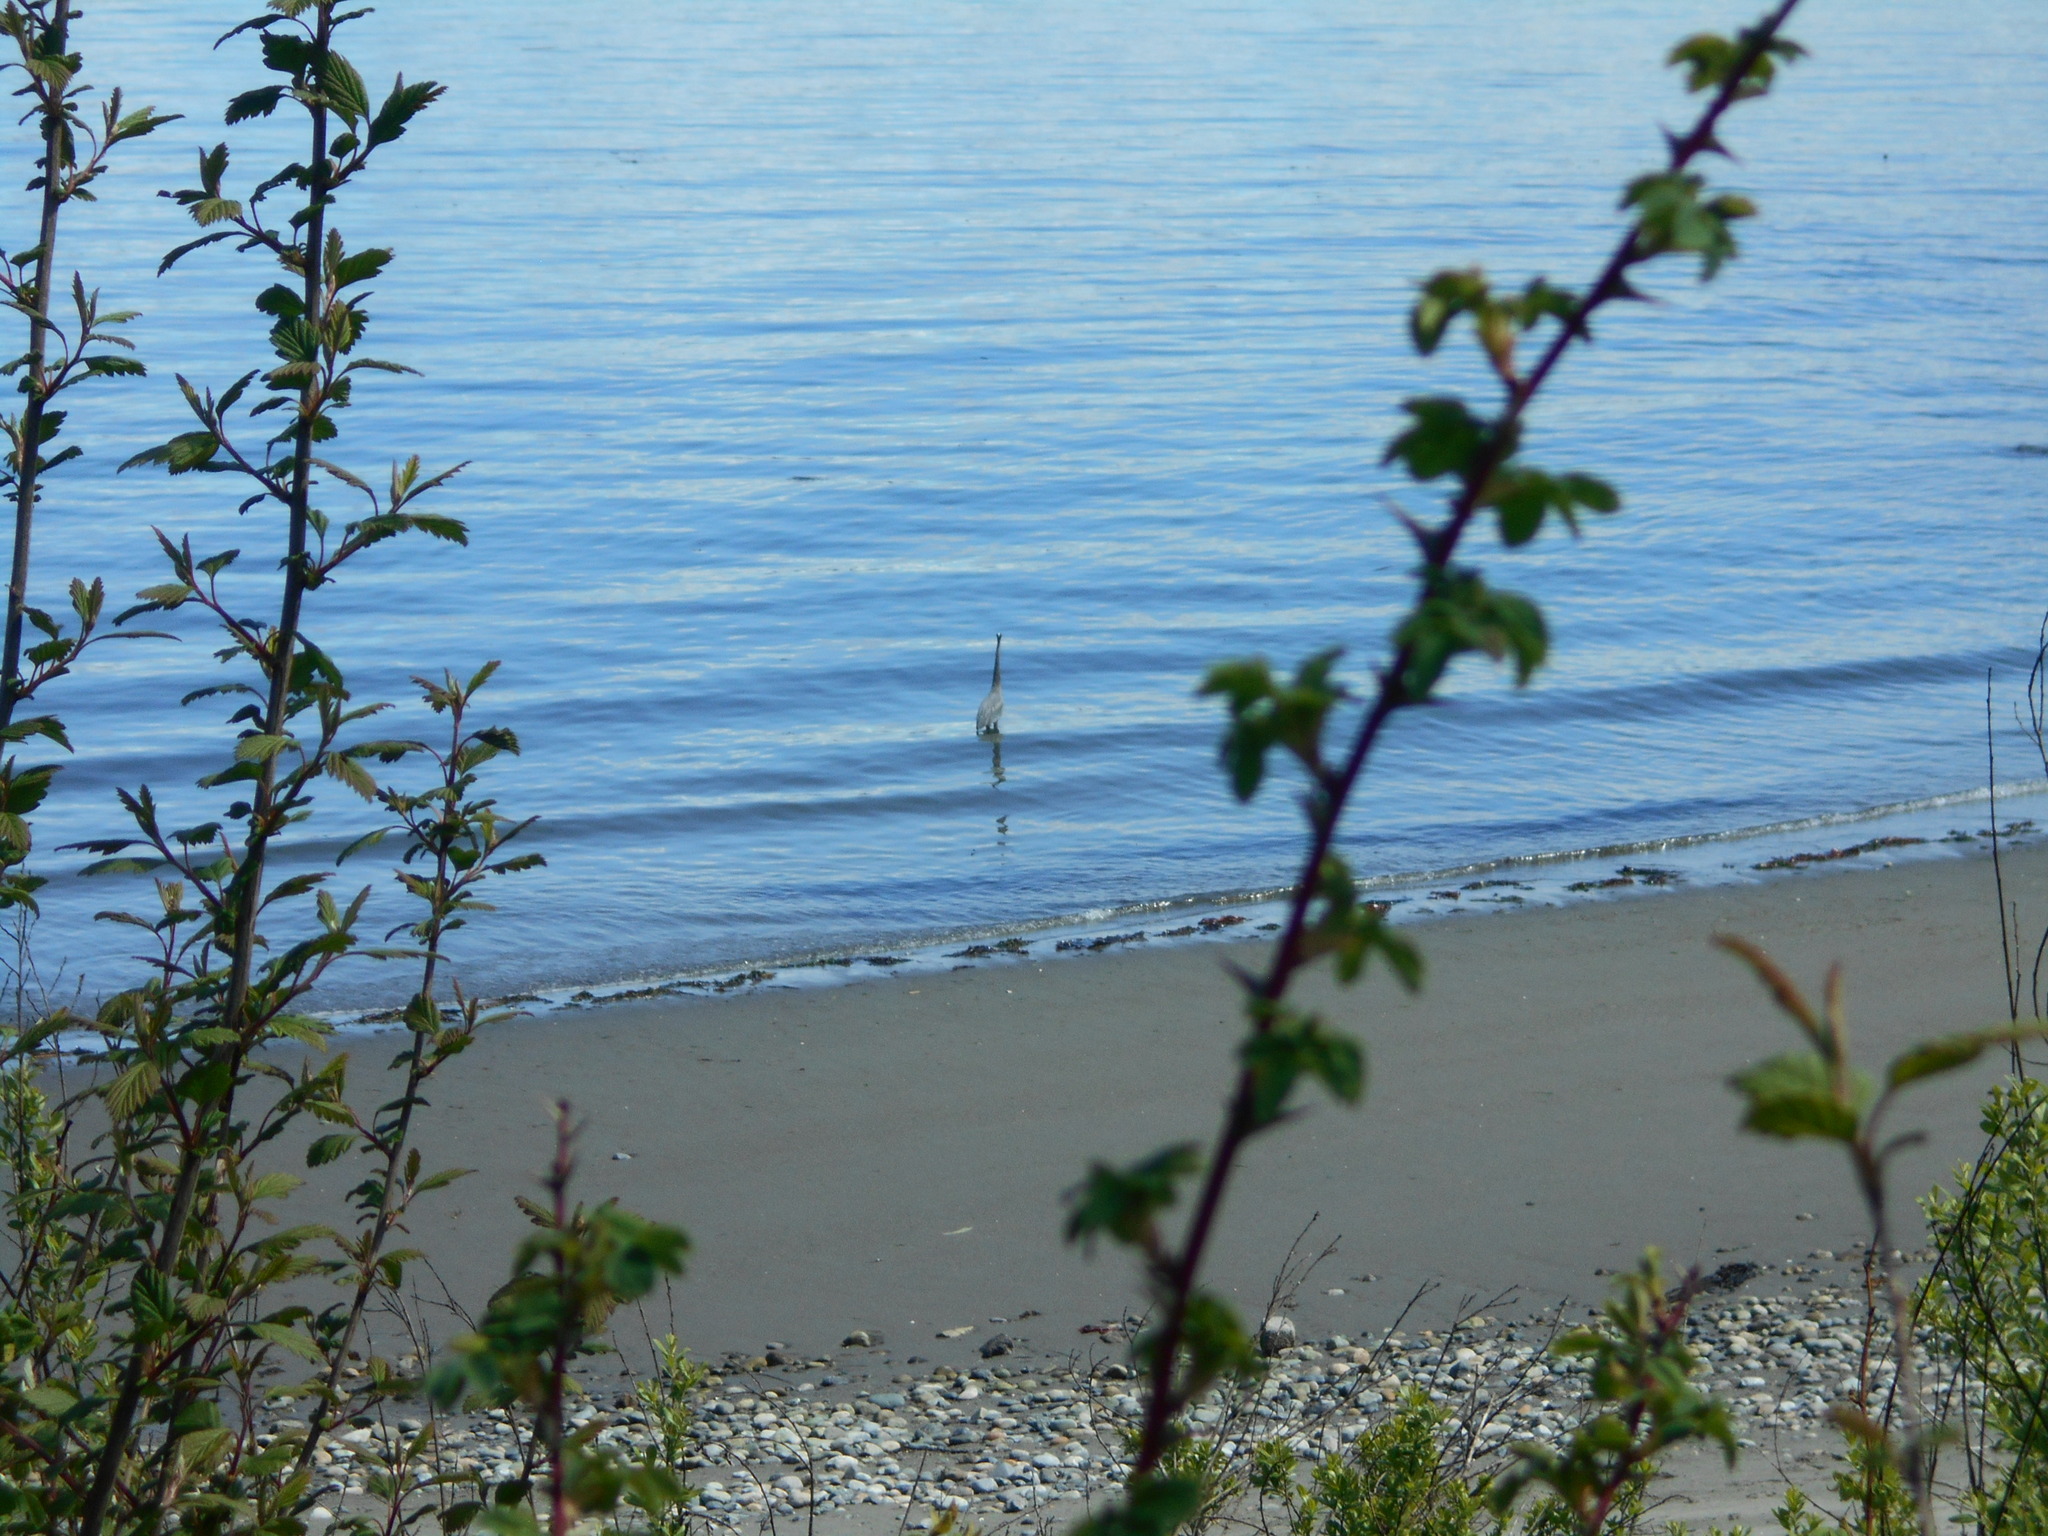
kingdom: Animalia
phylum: Chordata
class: Aves
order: Pelecaniformes
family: Ardeidae
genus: Ardea
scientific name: Ardea herodias
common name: Great blue heron
